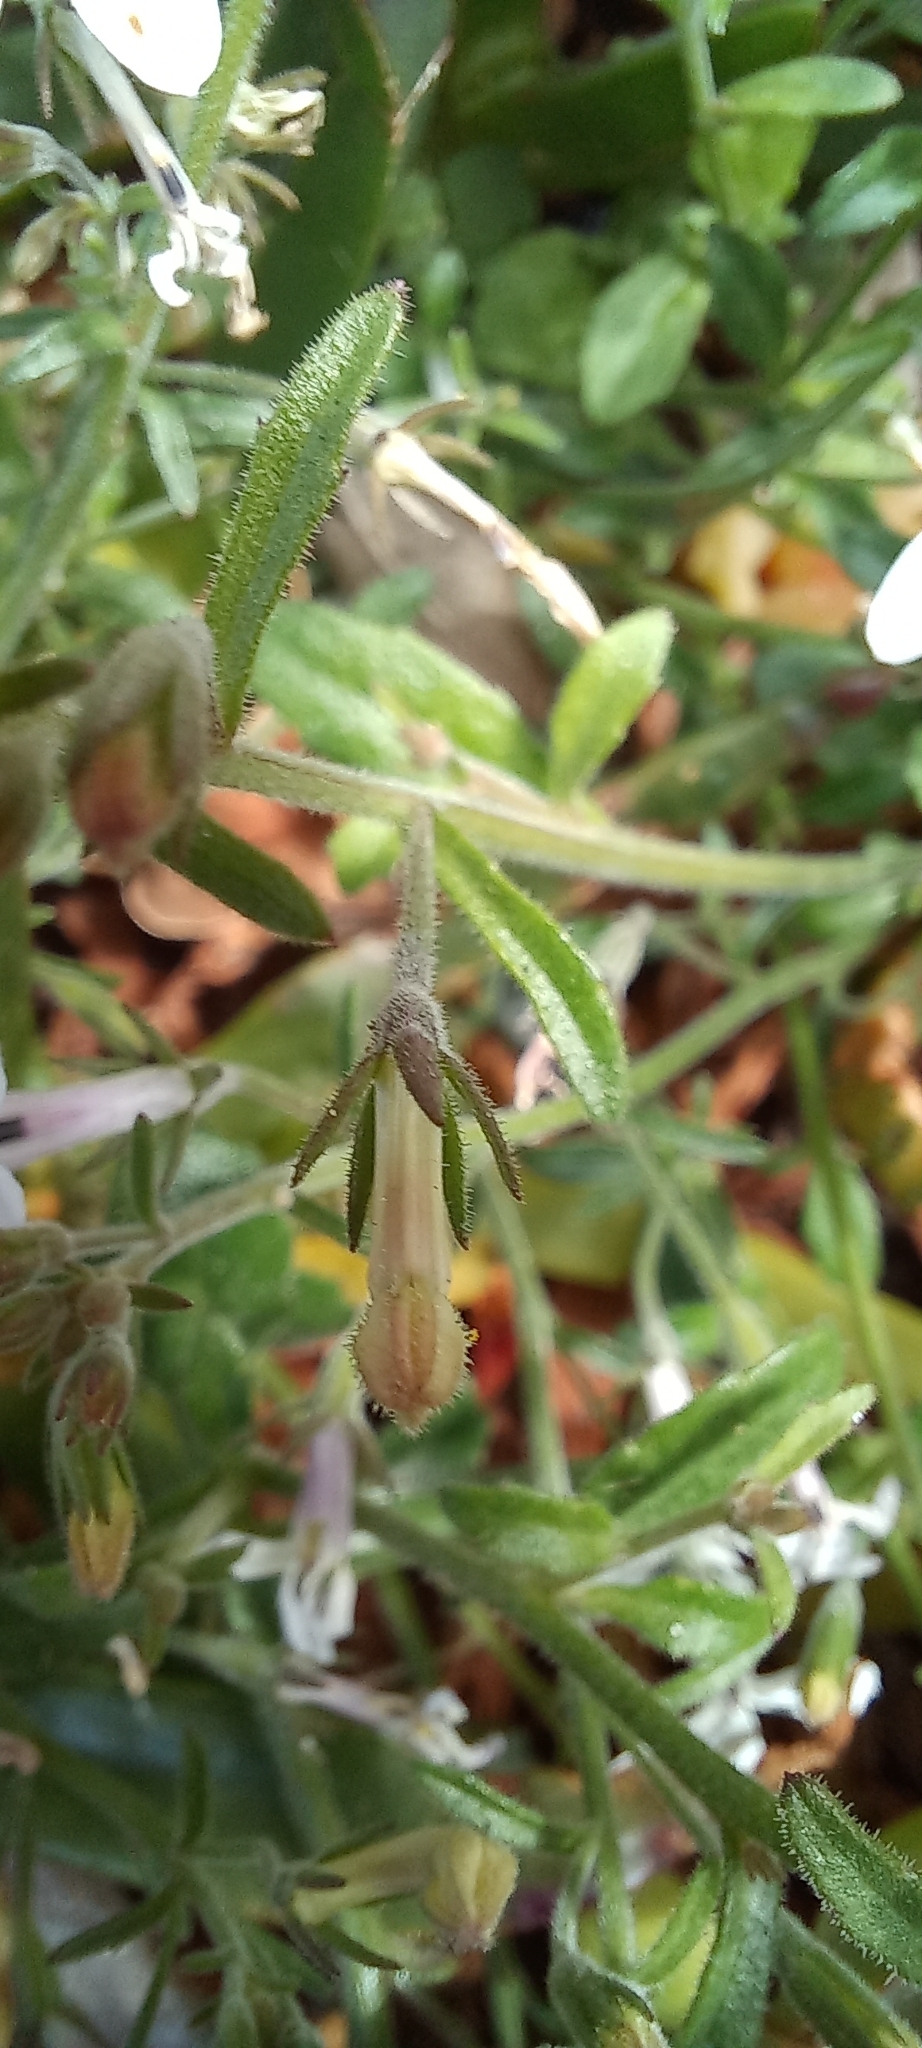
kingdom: Plantae
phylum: Tracheophyta
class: Magnoliopsida
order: Asterales
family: Campanulaceae
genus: Lobelia
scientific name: Lobelia pubescens
